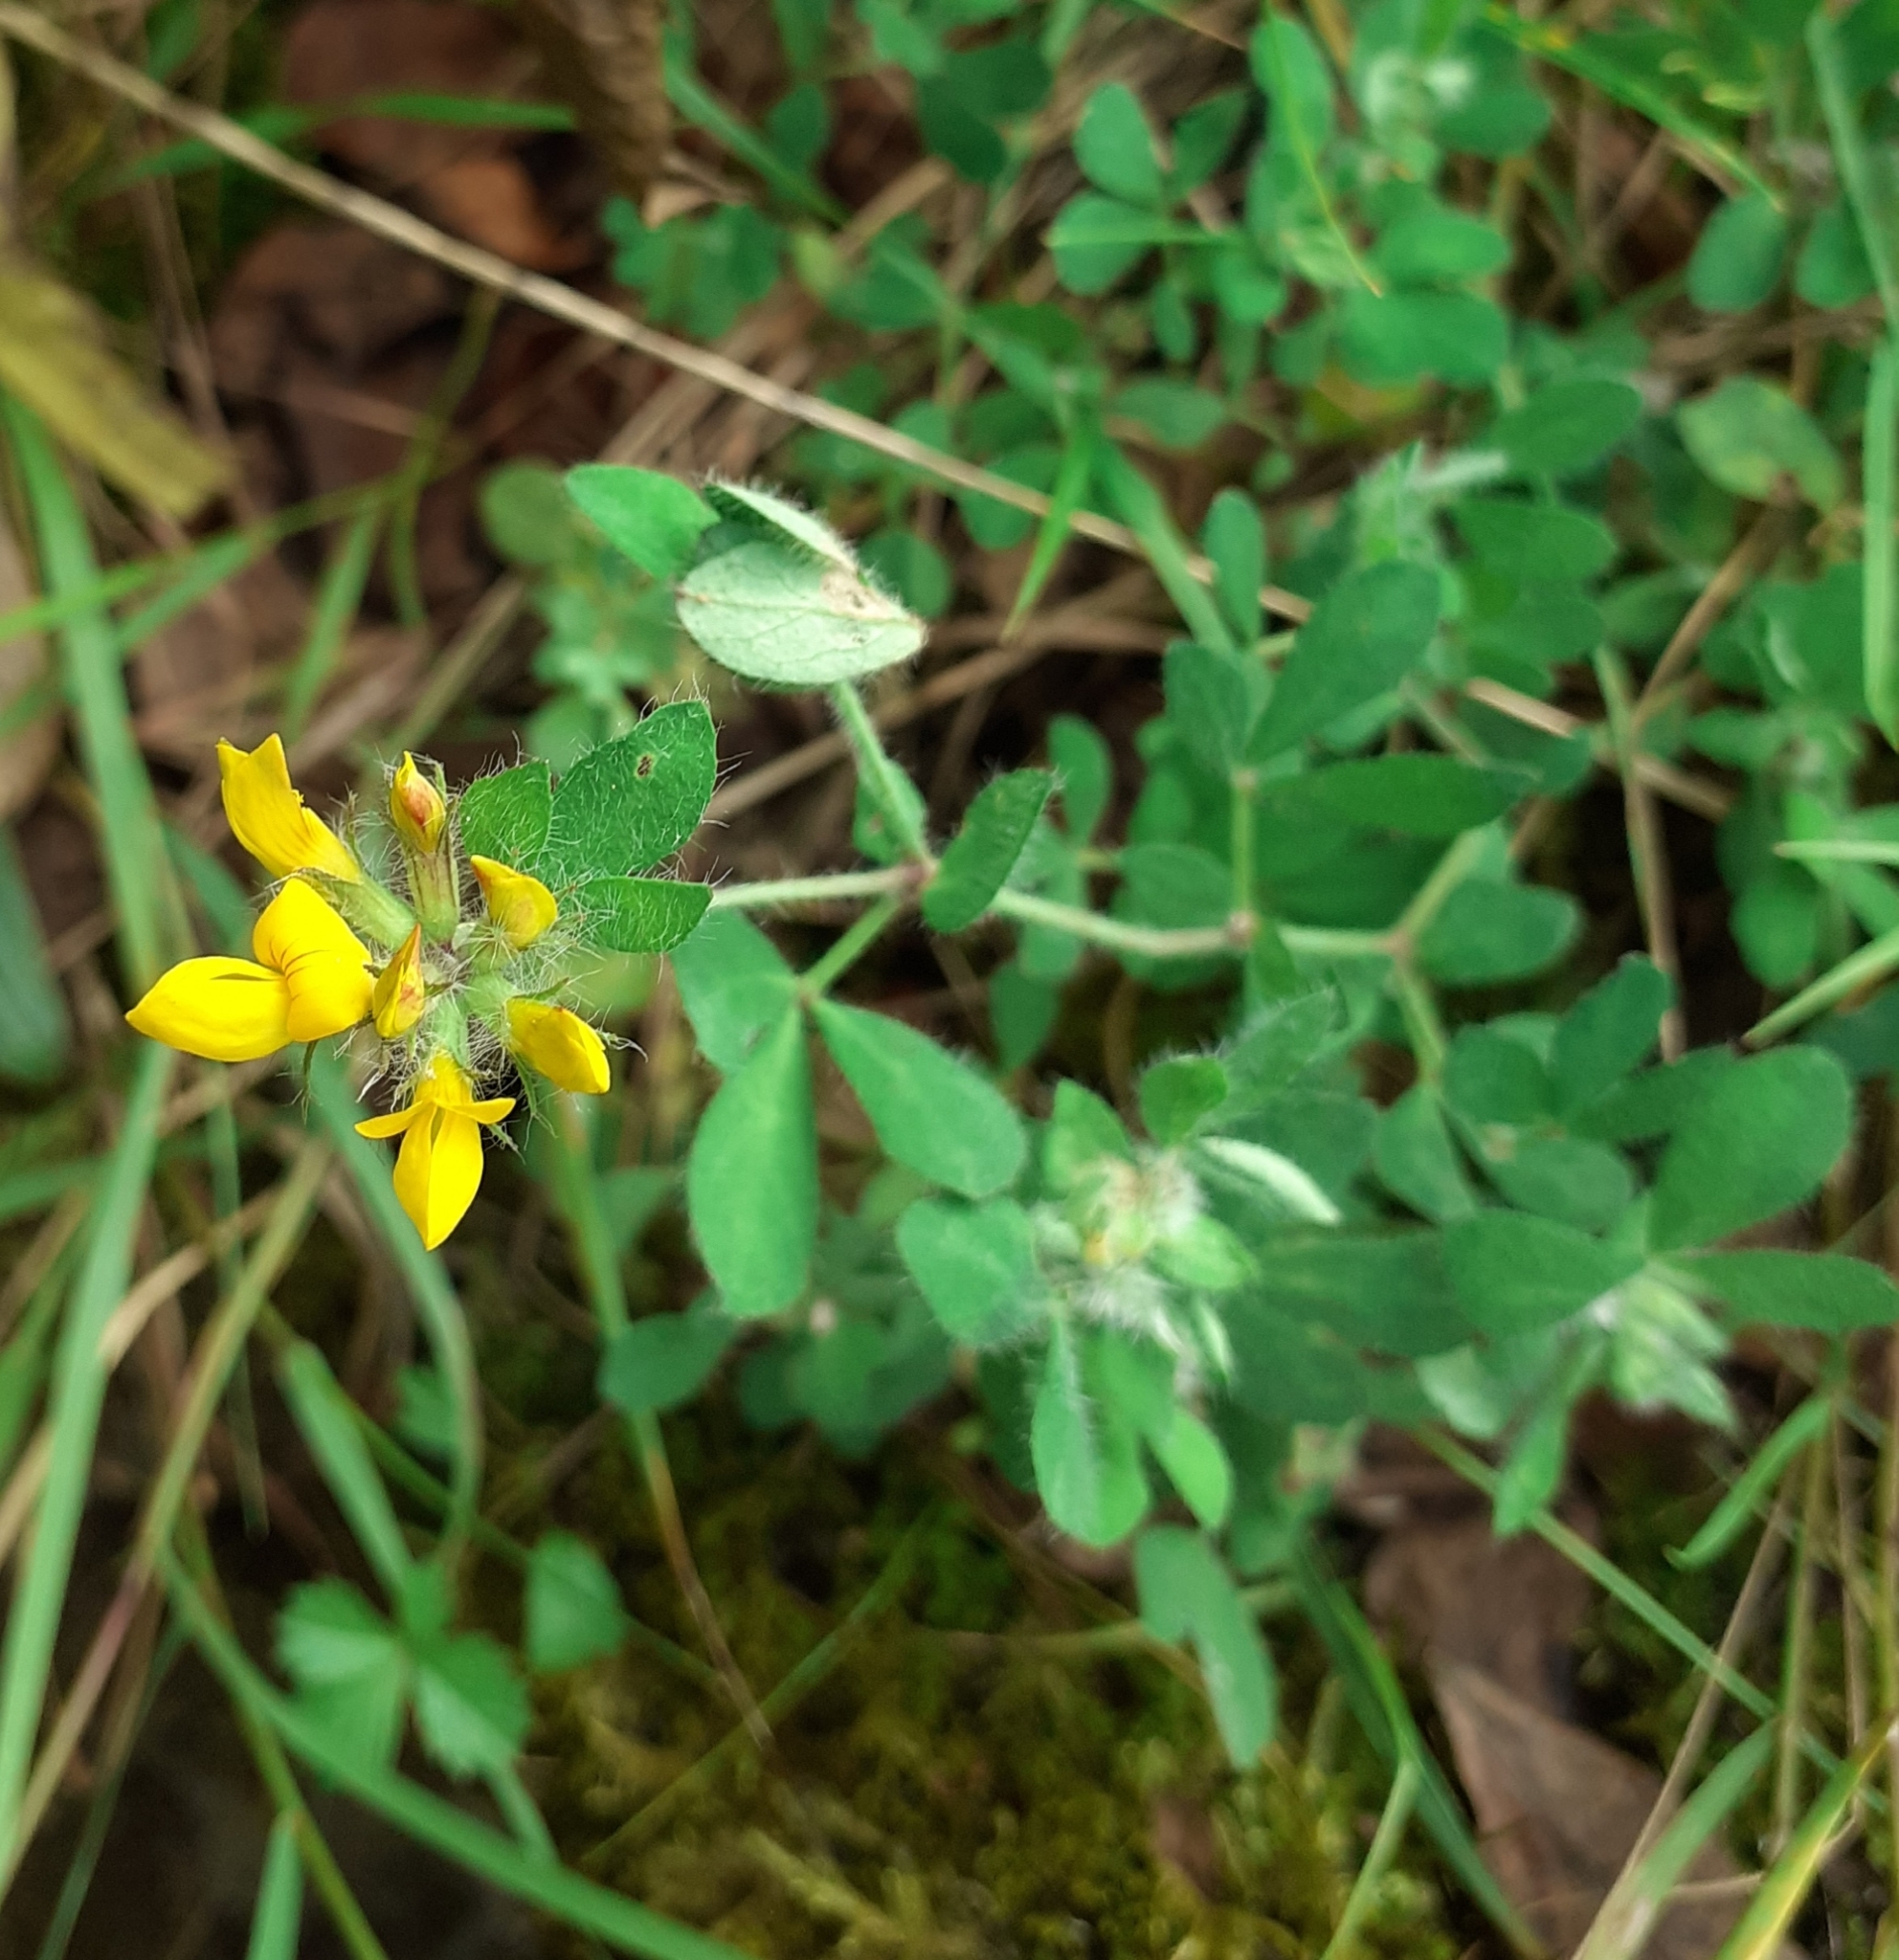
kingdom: Plantae
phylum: Tracheophyta
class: Magnoliopsida
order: Fabales
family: Fabaceae
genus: Lotus
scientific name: Lotus pedunculatus
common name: Greater birdsfoot-trefoil
